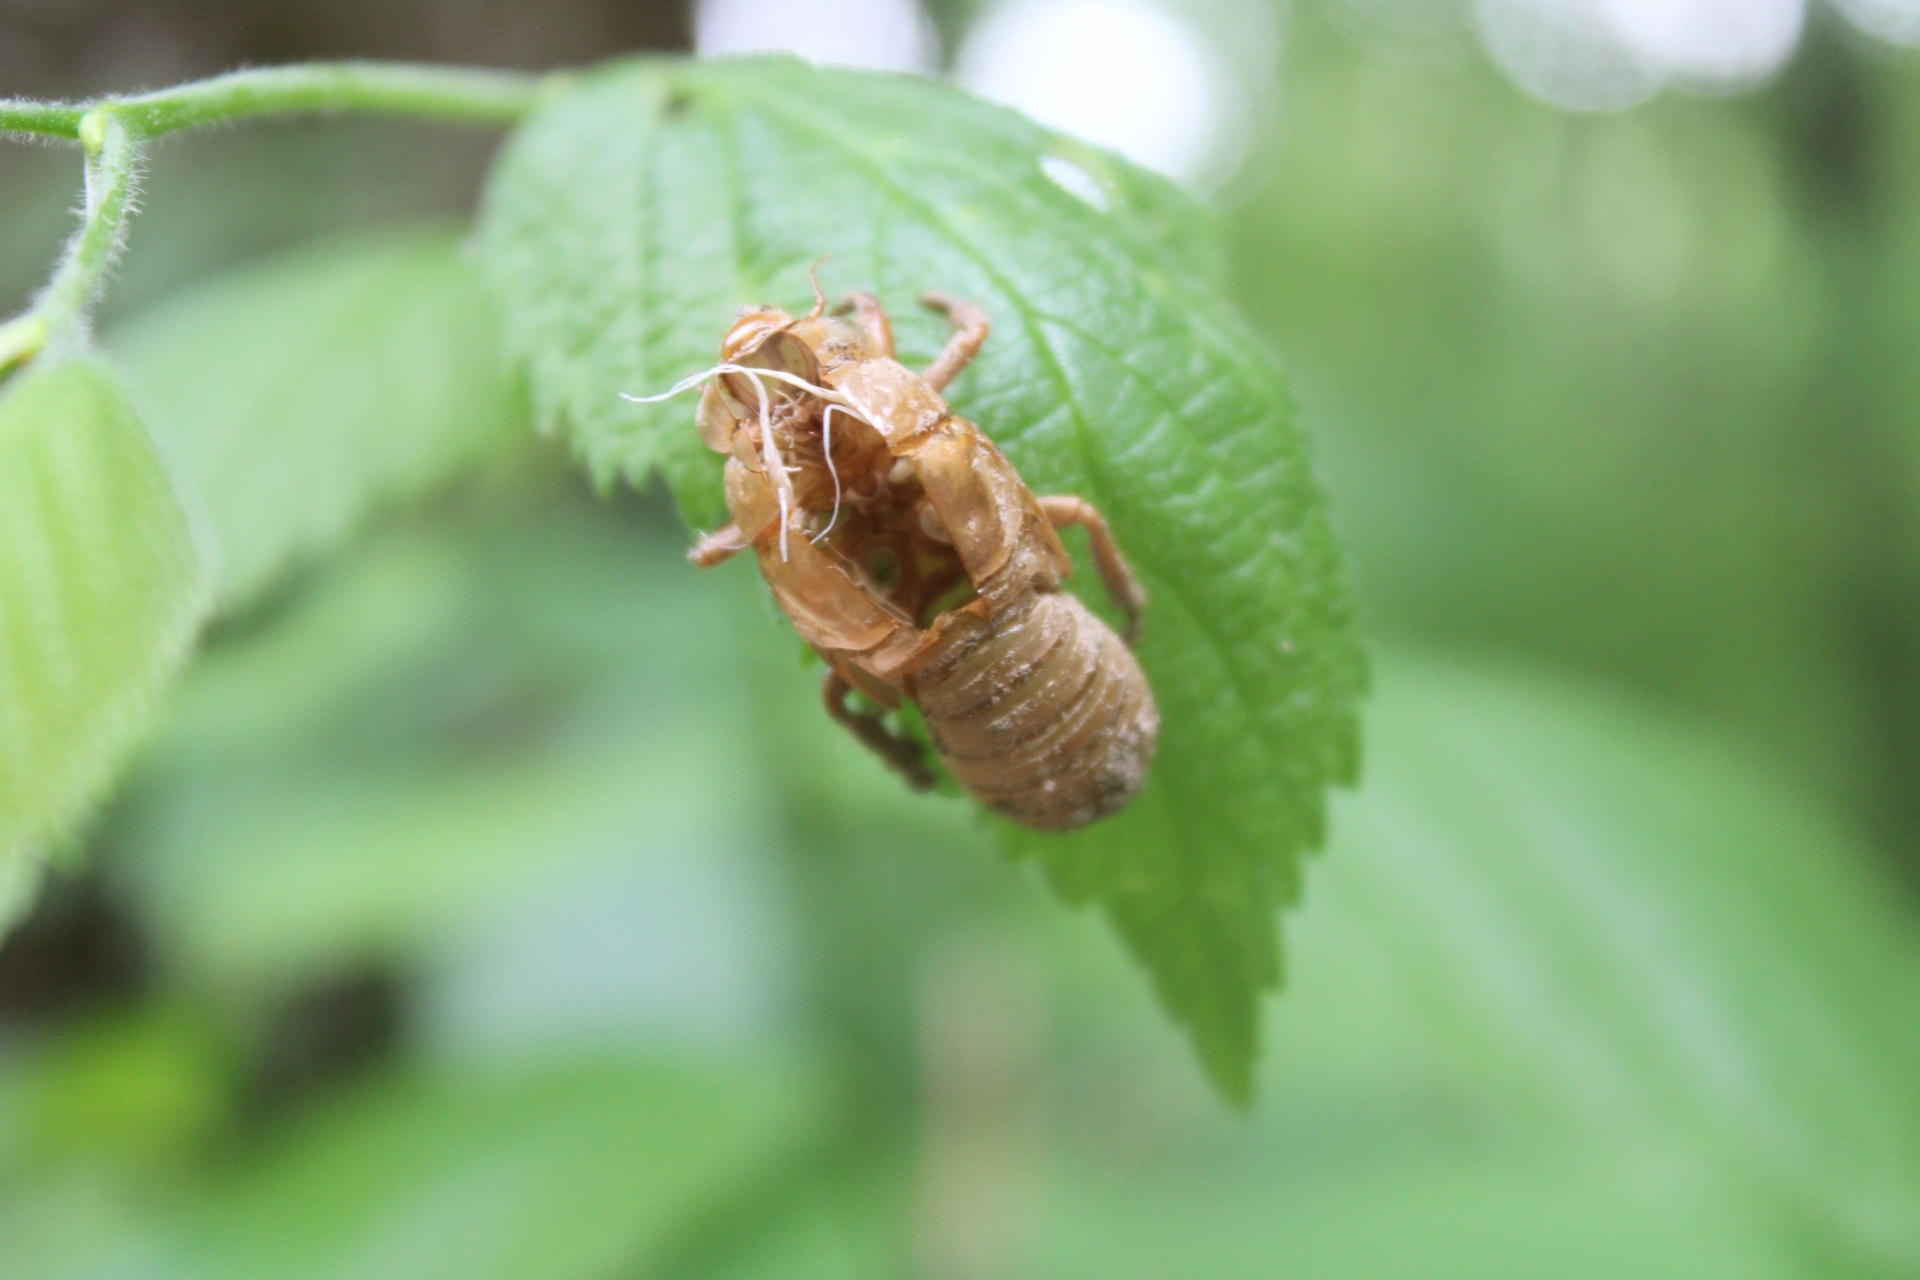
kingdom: Animalia
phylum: Arthropoda
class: Insecta
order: Hemiptera
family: Cicadidae
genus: Magicicada
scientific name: Magicicada
